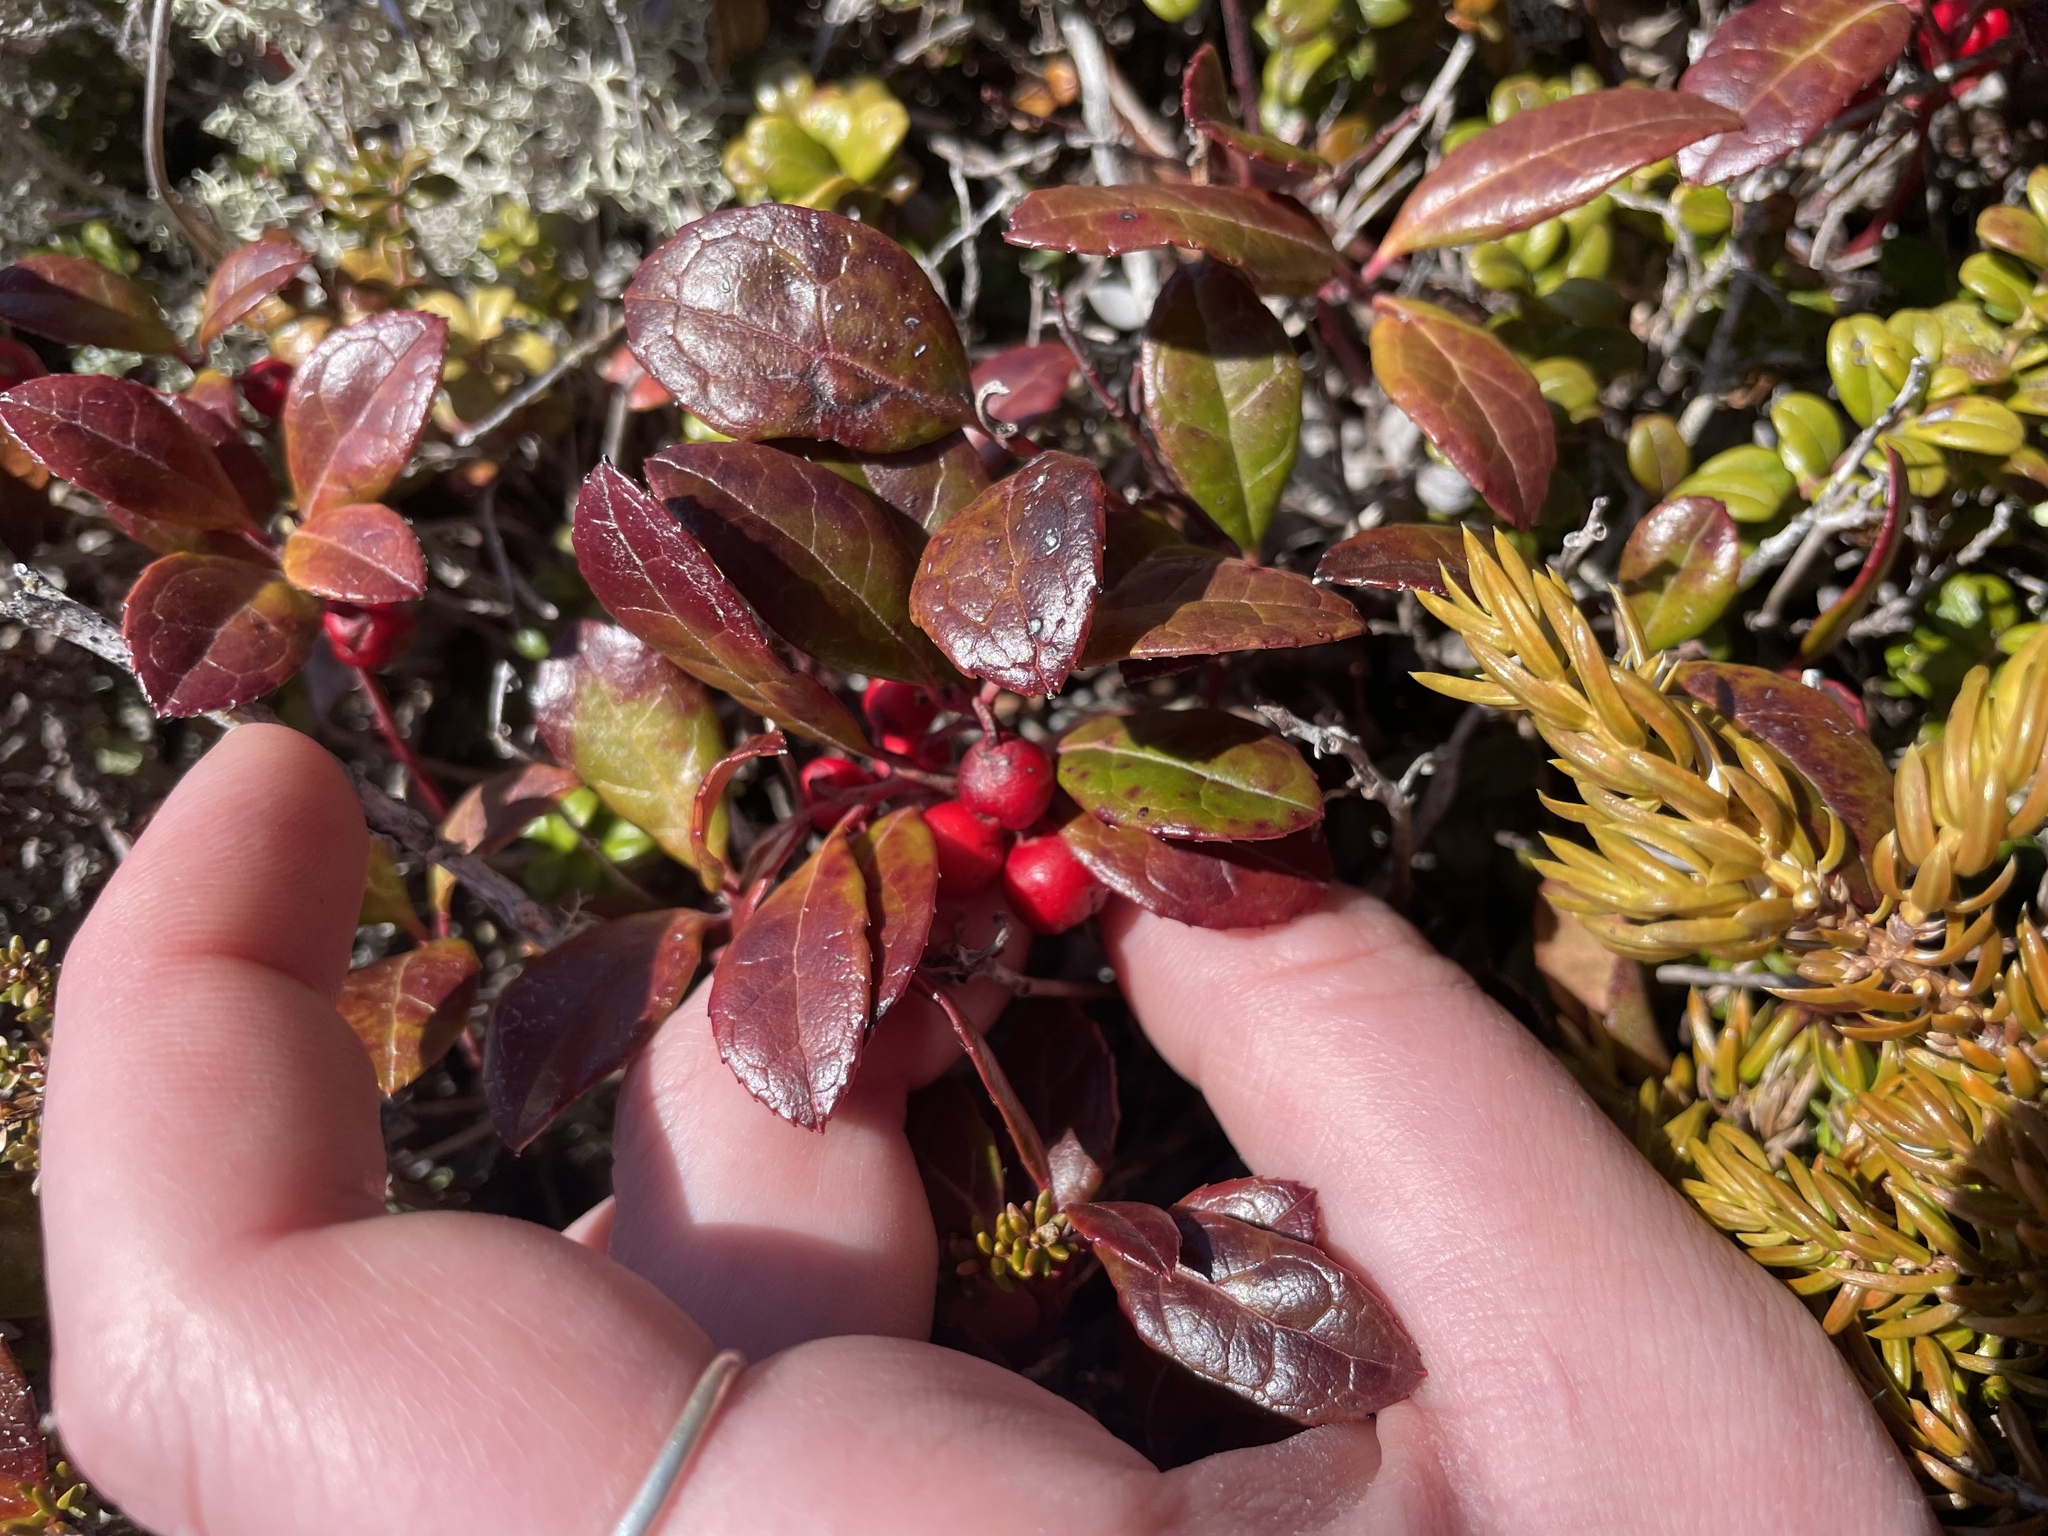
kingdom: Plantae
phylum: Tracheophyta
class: Magnoliopsida
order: Ericales
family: Ericaceae
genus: Gaultheria
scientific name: Gaultheria procumbens
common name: Checkerberry
